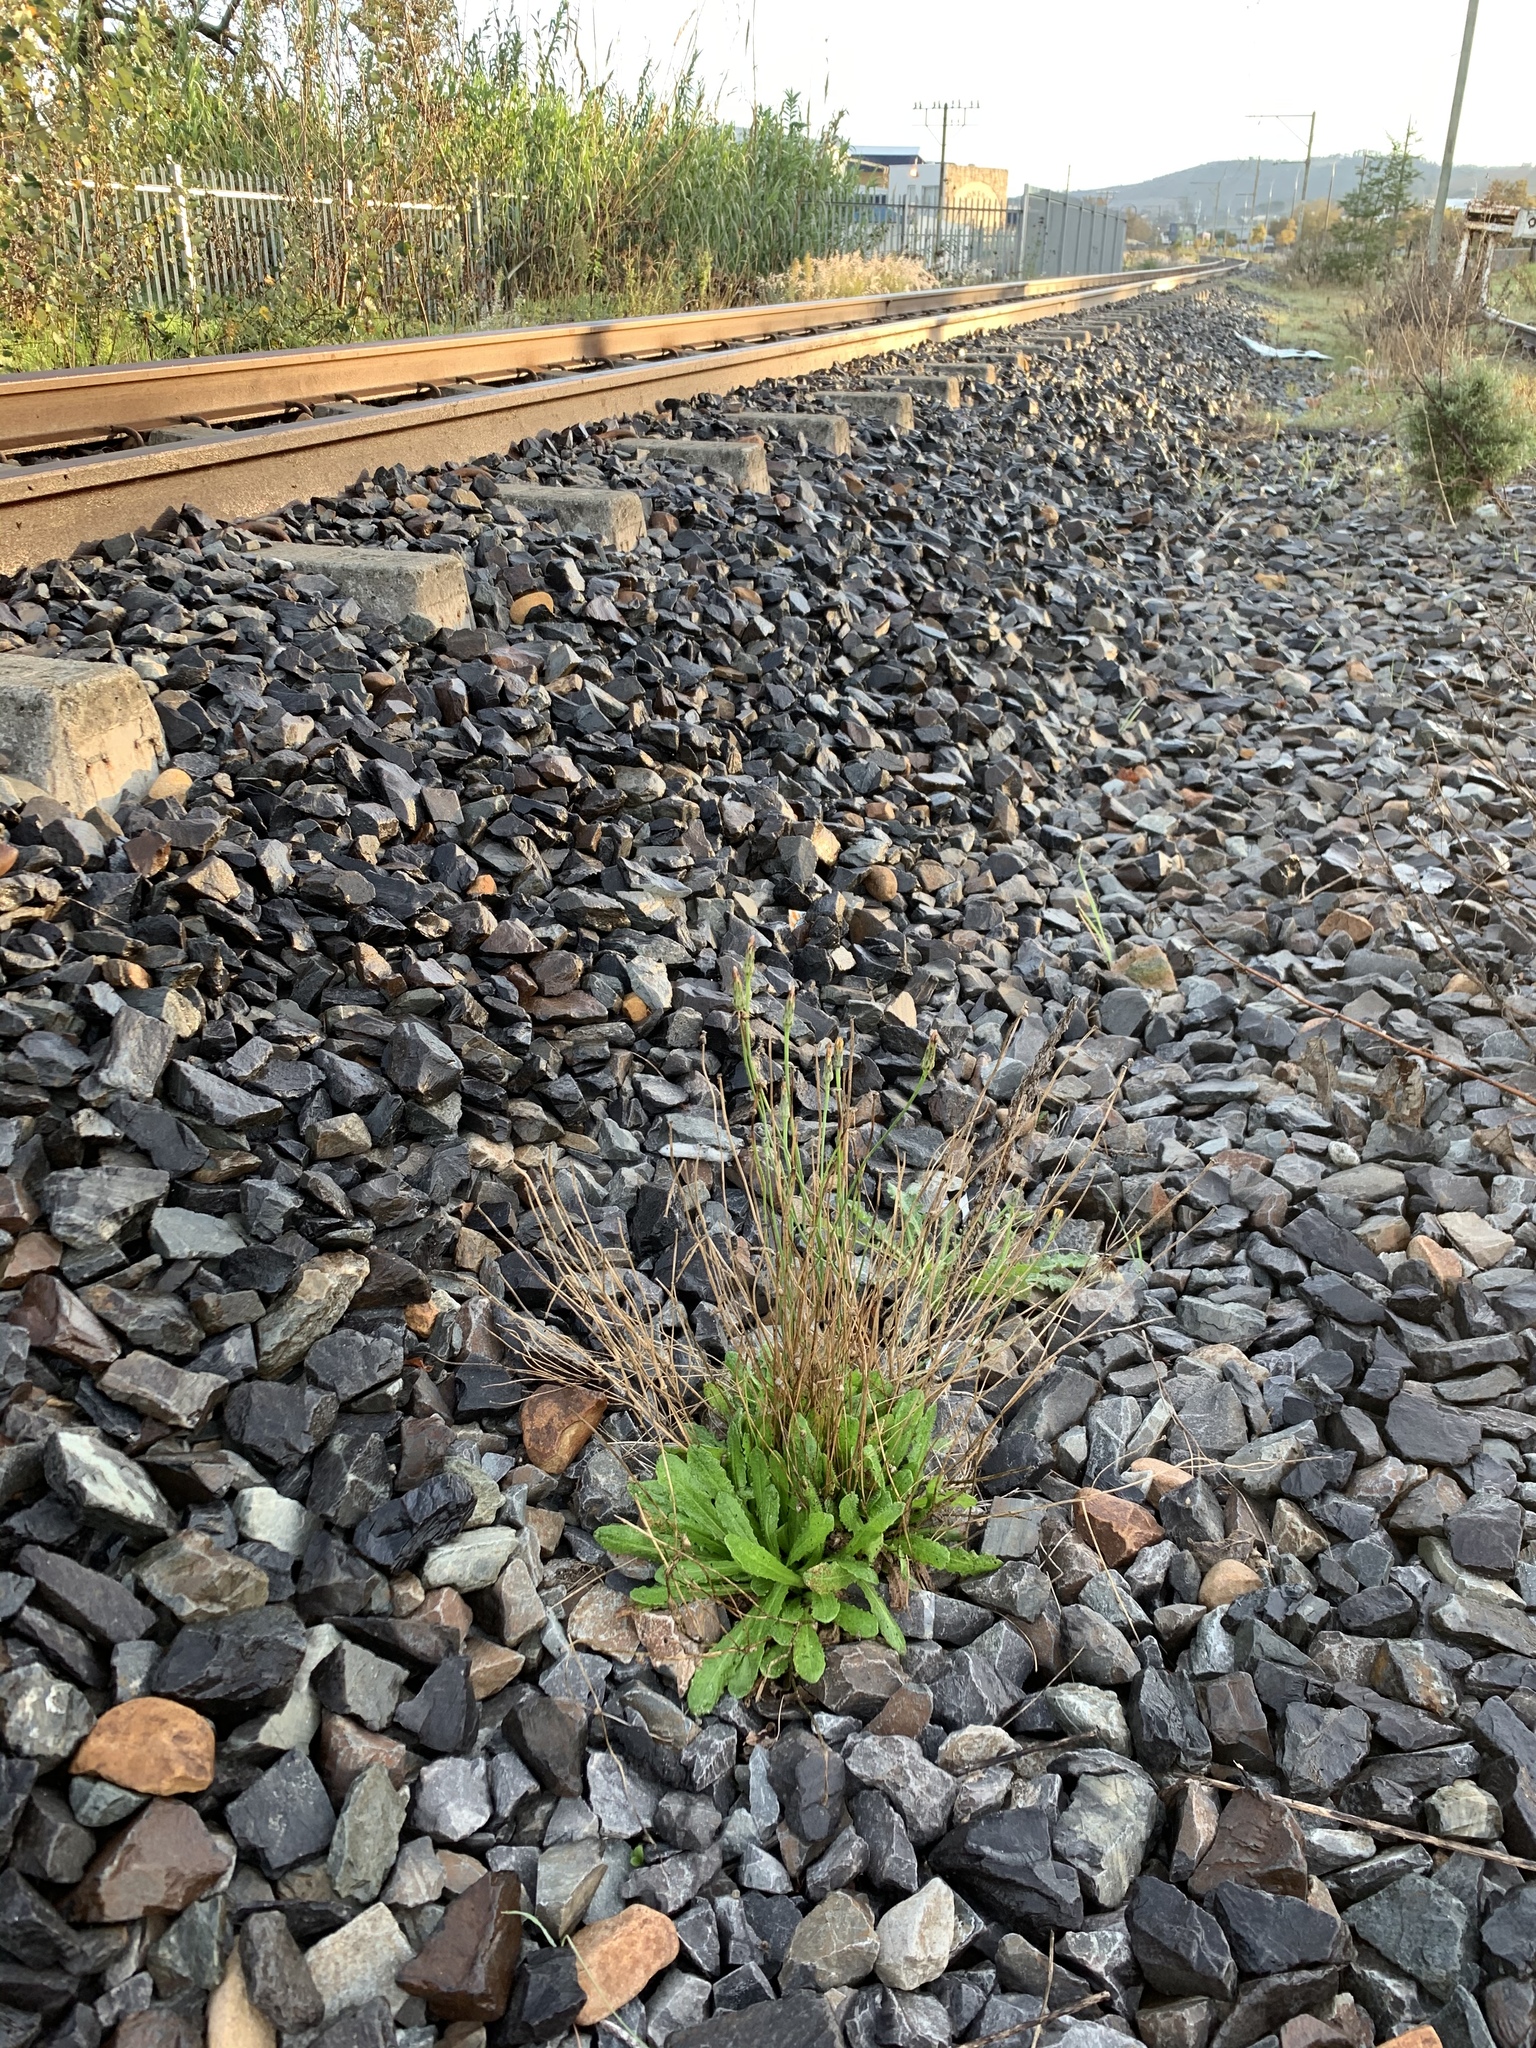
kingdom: Plantae
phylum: Tracheophyta
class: Magnoliopsida
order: Asterales
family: Asteraceae
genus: Hypochaeris
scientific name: Hypochaeris radicata
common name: Flatweed
